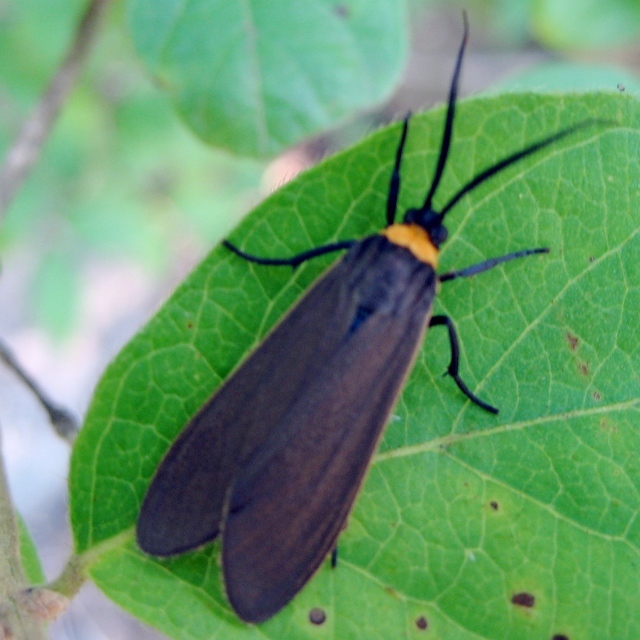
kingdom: Animalia
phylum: Arthropoda
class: Insecta
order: Lepidoptera
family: Erebidae
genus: Cisseps
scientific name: Cisseps fulvicollis
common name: Yellow-collared scape moth
